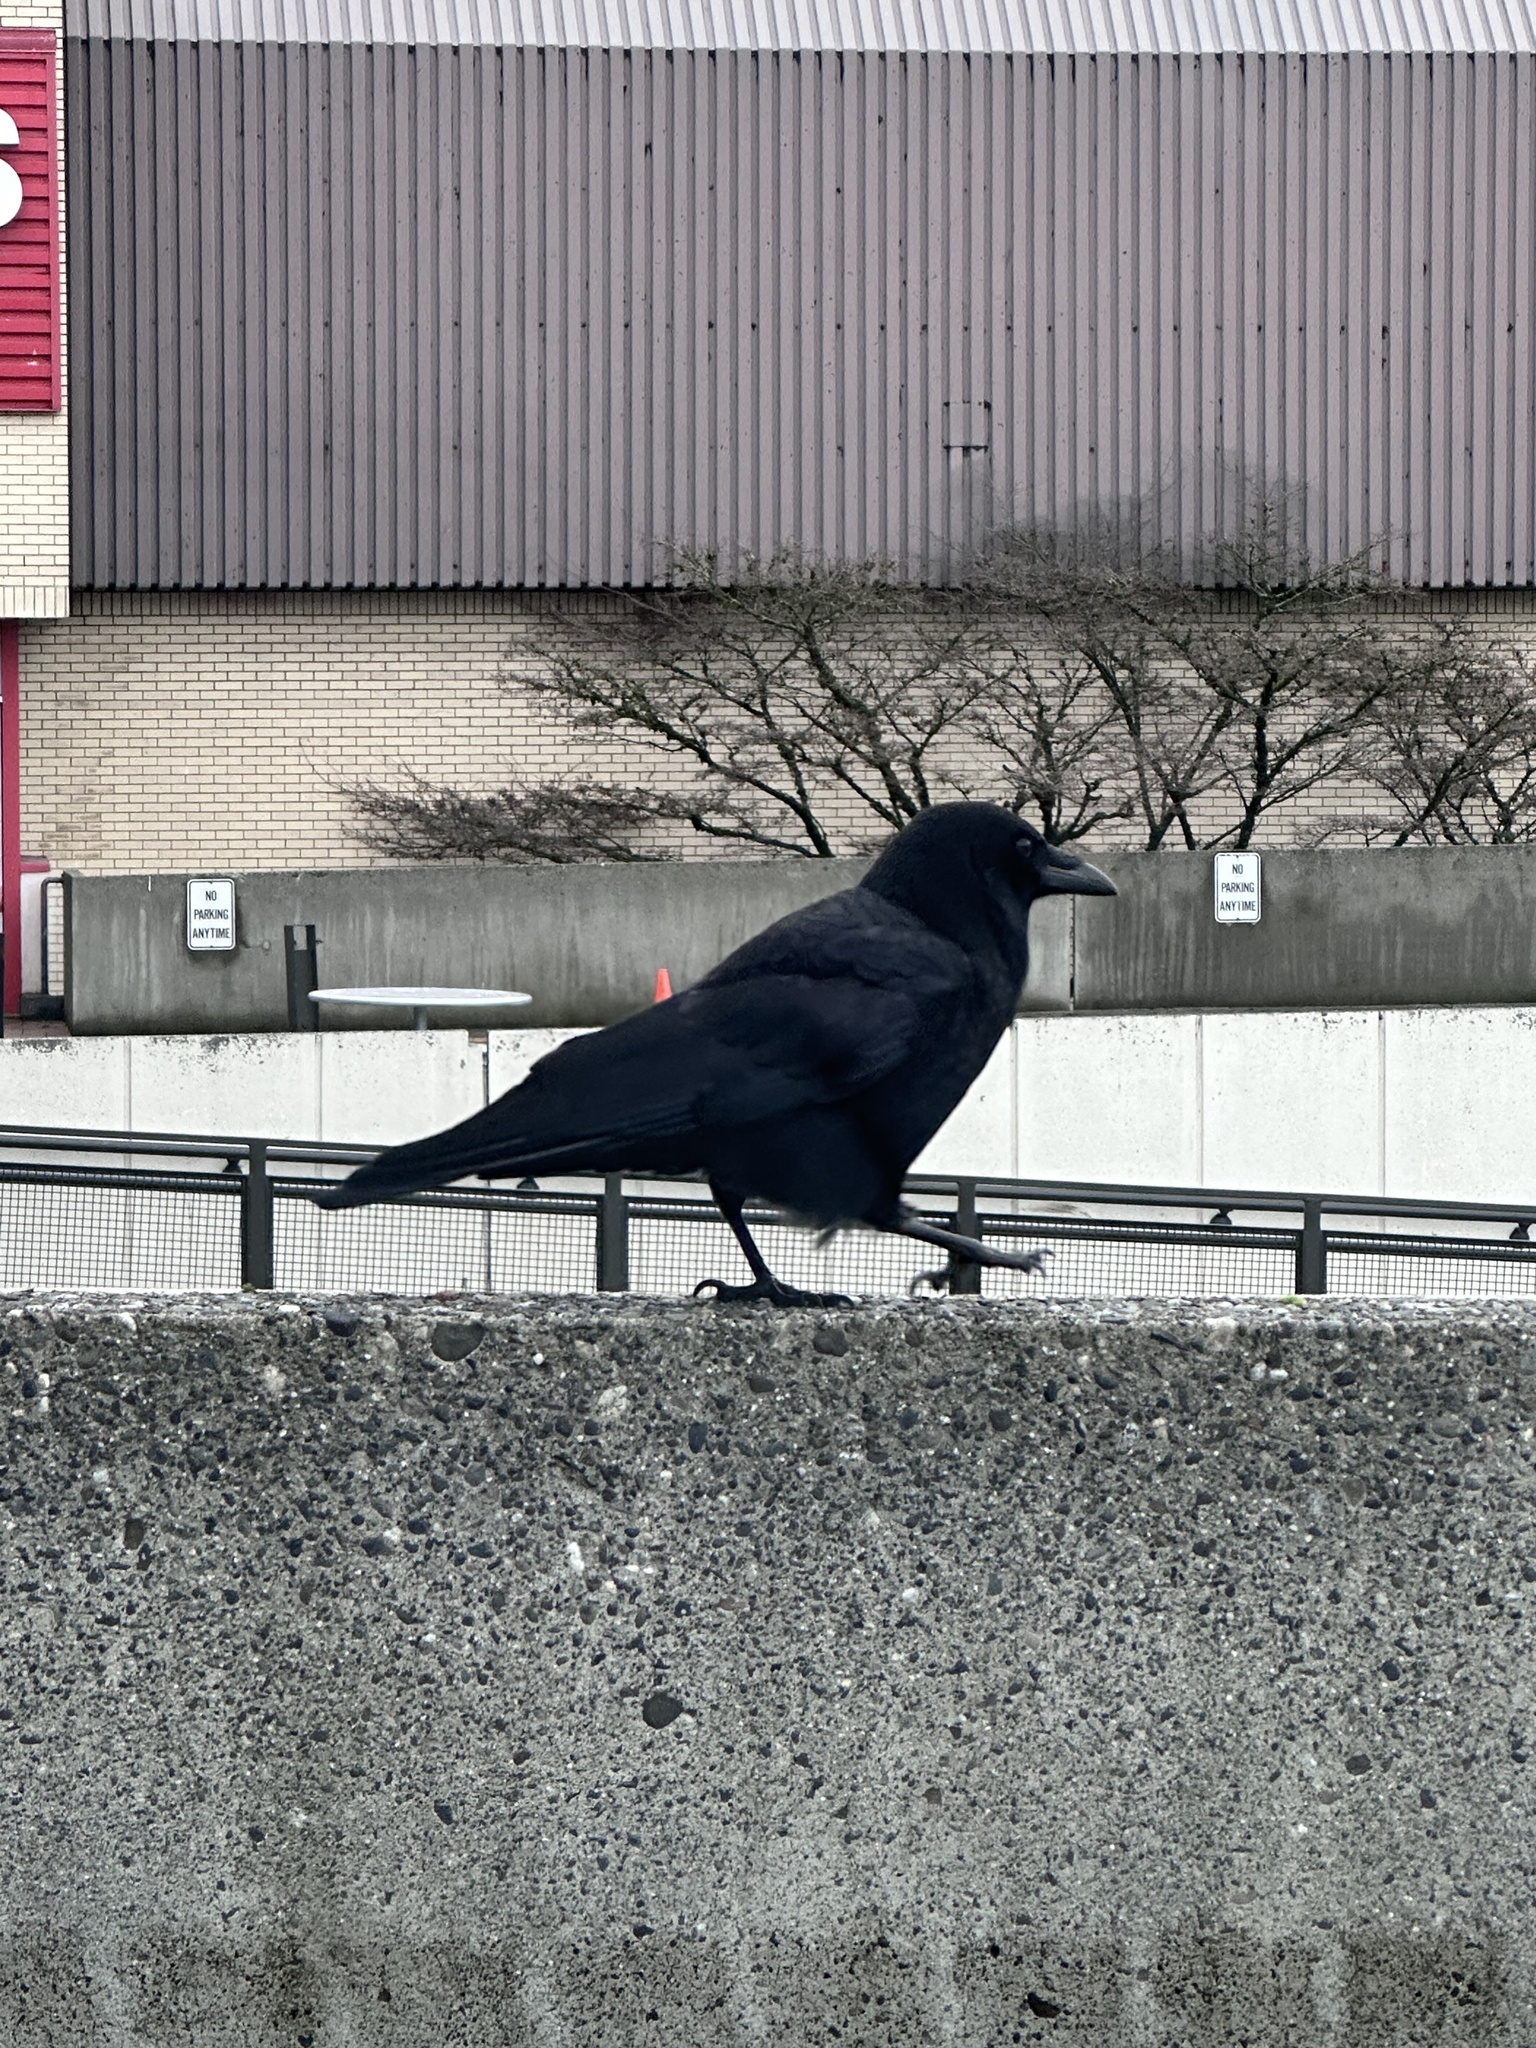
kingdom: Animalia
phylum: Chordata
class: Aves
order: Passeriformes
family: Corvidae
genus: Corvus
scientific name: Corvus brachyrhynchos
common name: American crow
